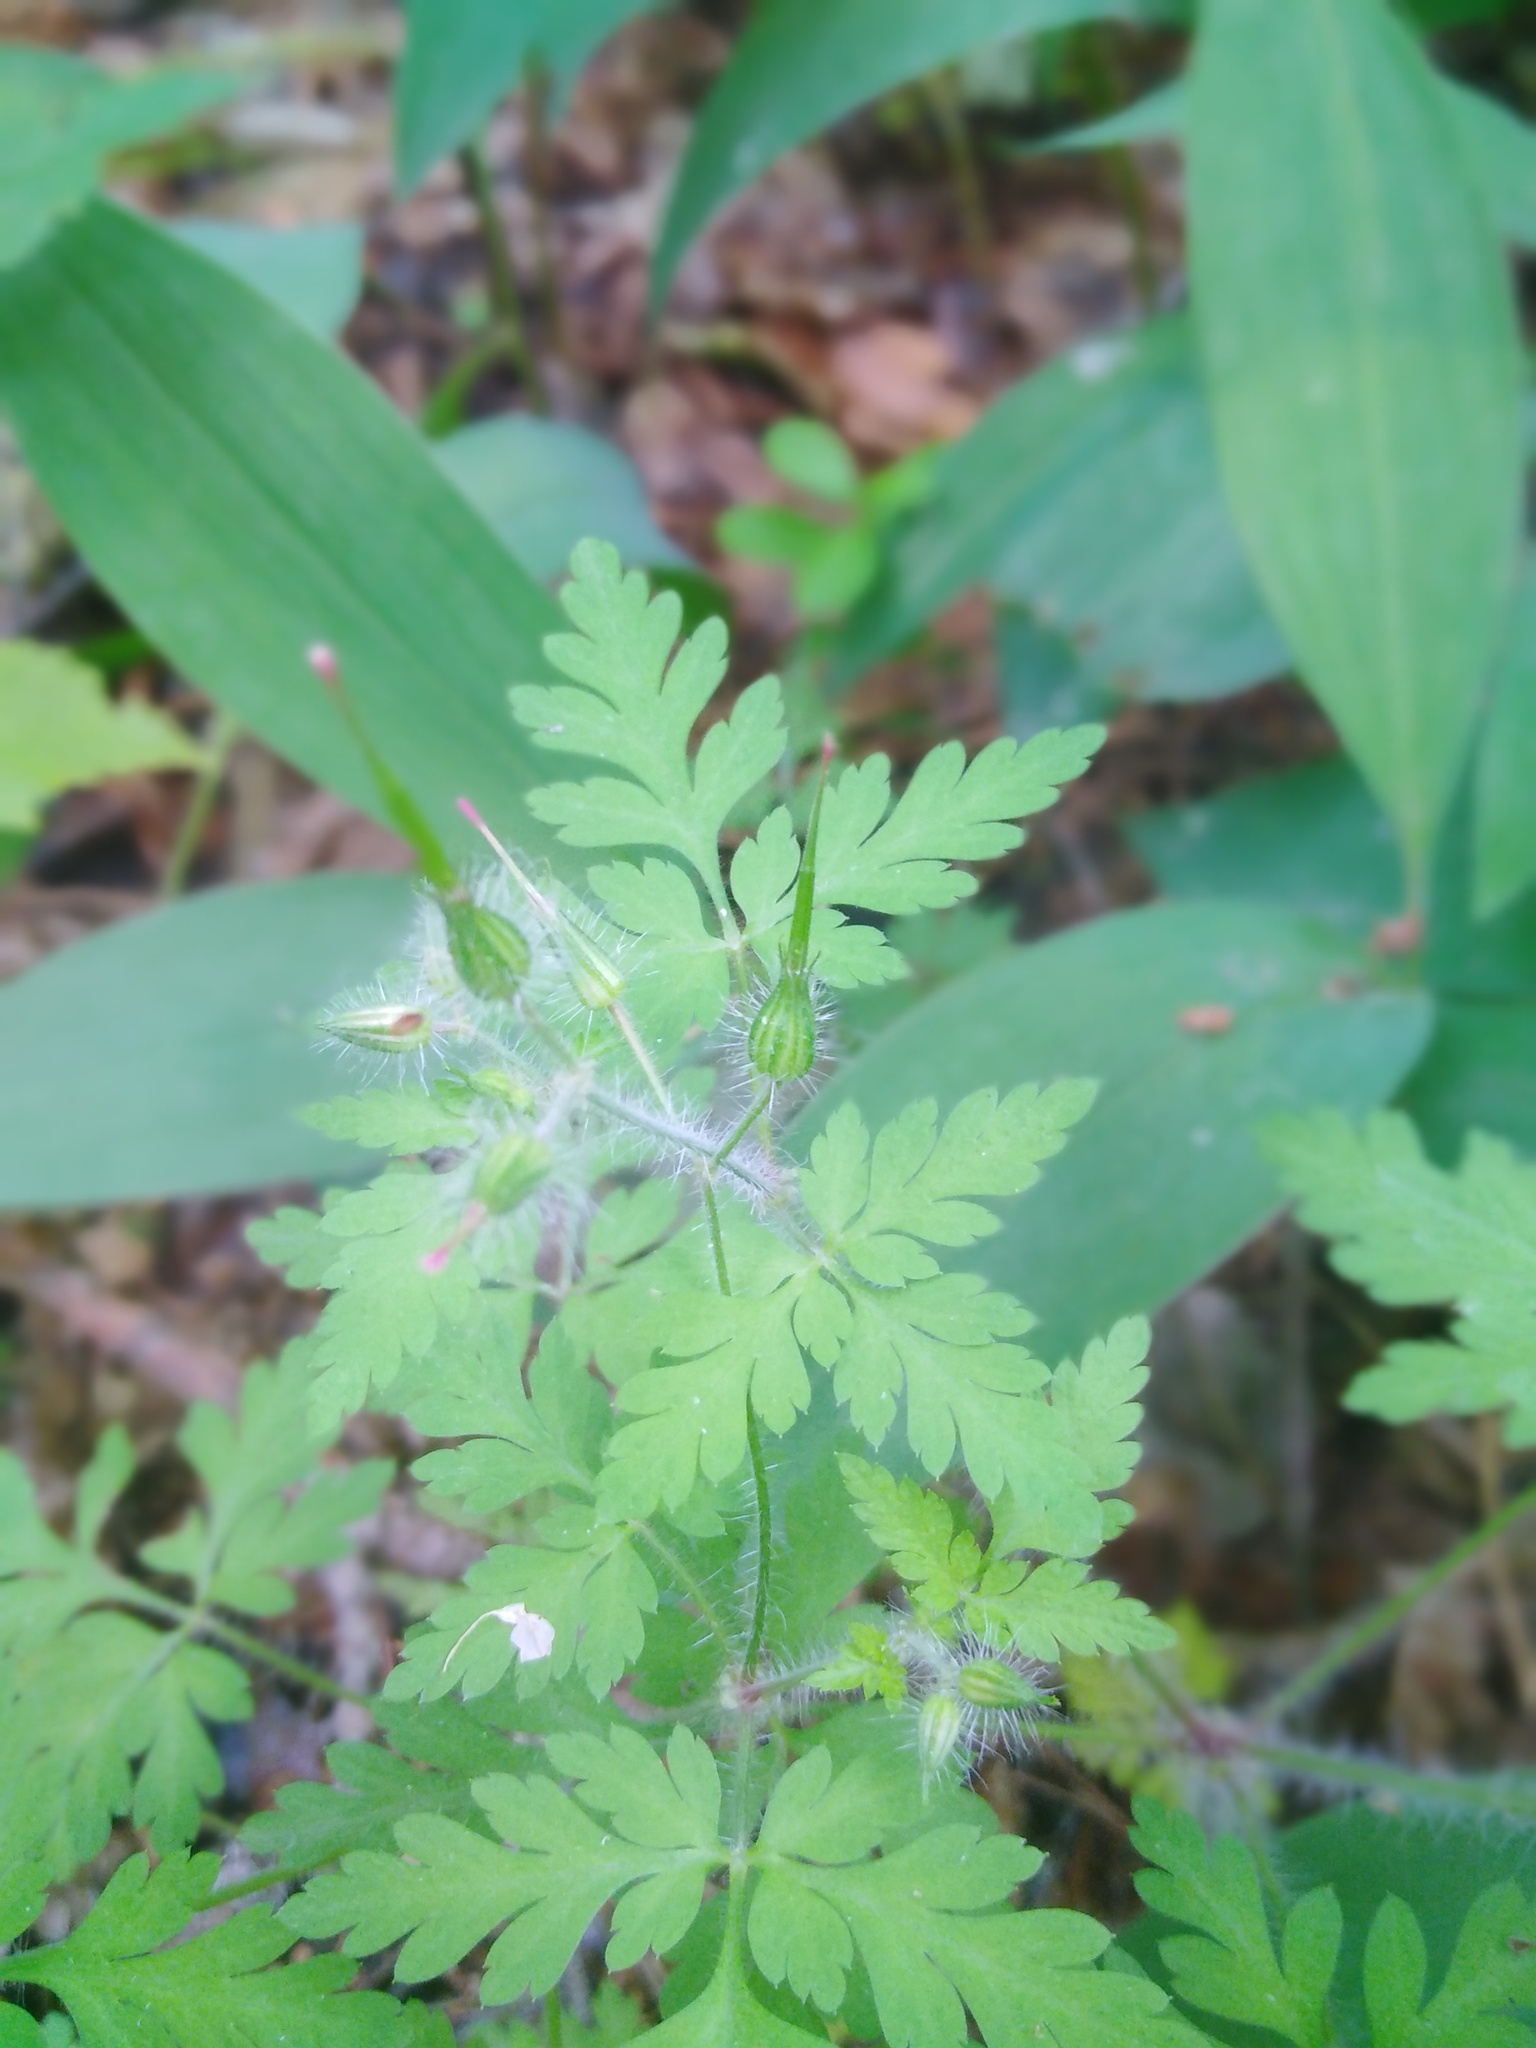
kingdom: Plantae
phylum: Tracheophyta
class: Magnoliopsida
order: Geraniales
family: Geraniaceae
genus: Geranium
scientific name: Geranium robertianum
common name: Herb-robert
